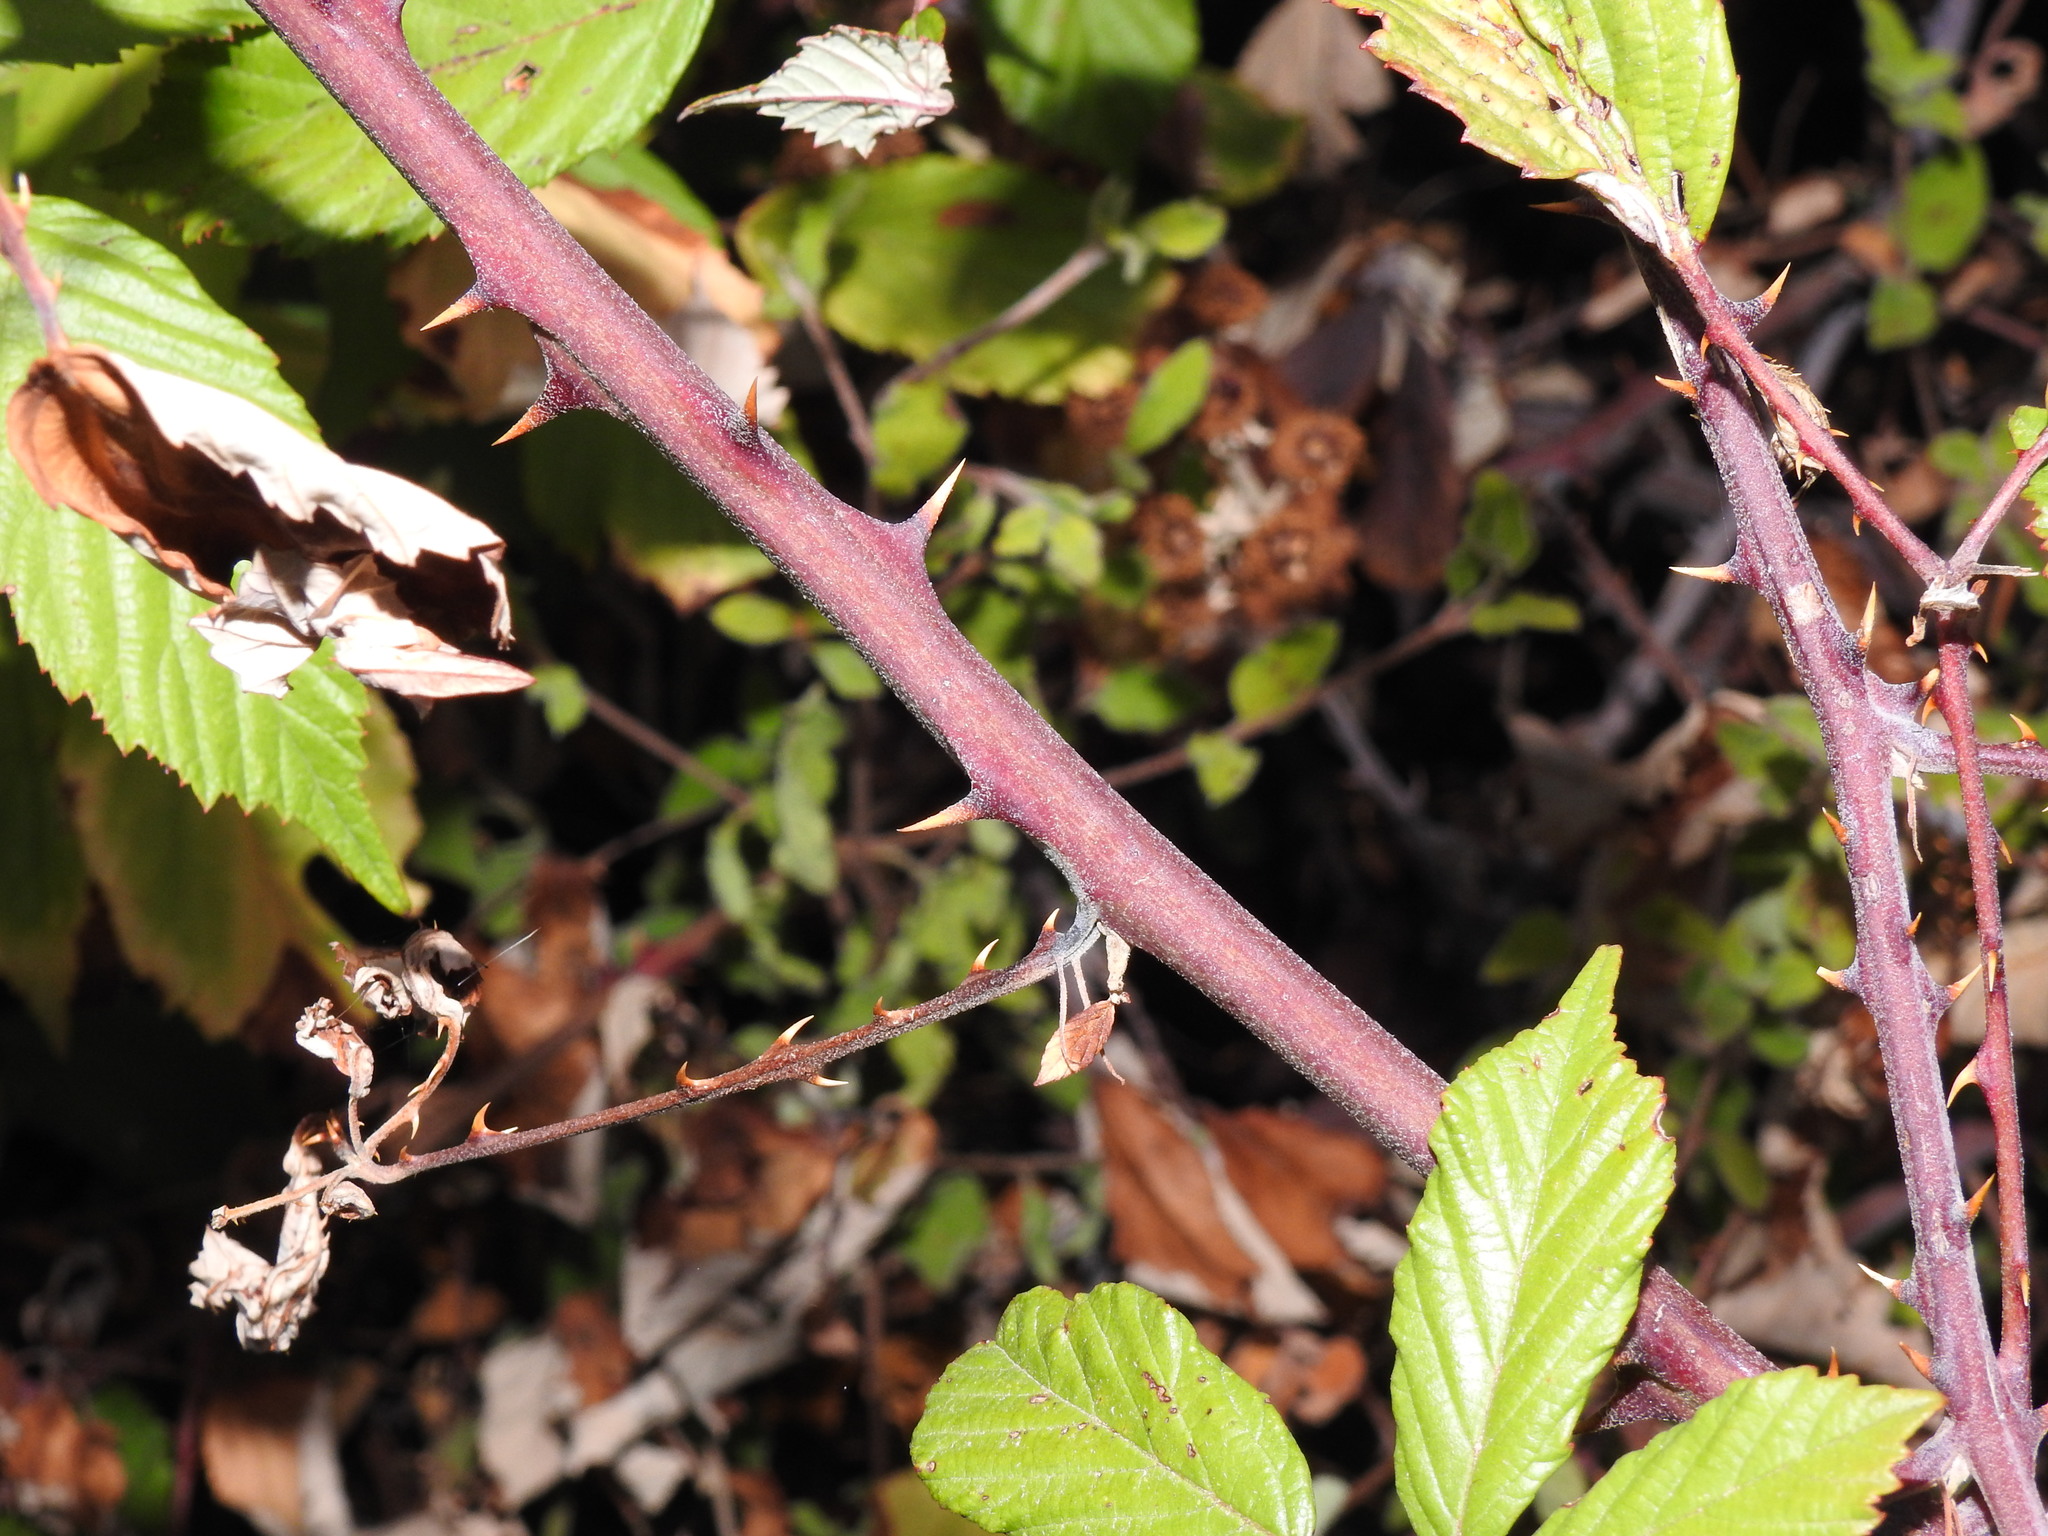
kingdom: Plantae
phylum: Tracheophyta
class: Magnoliopsida
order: Rosales
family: Rosaceae
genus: Rubus
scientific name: Rubus ulmifolius
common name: Elmleaf blackberry
